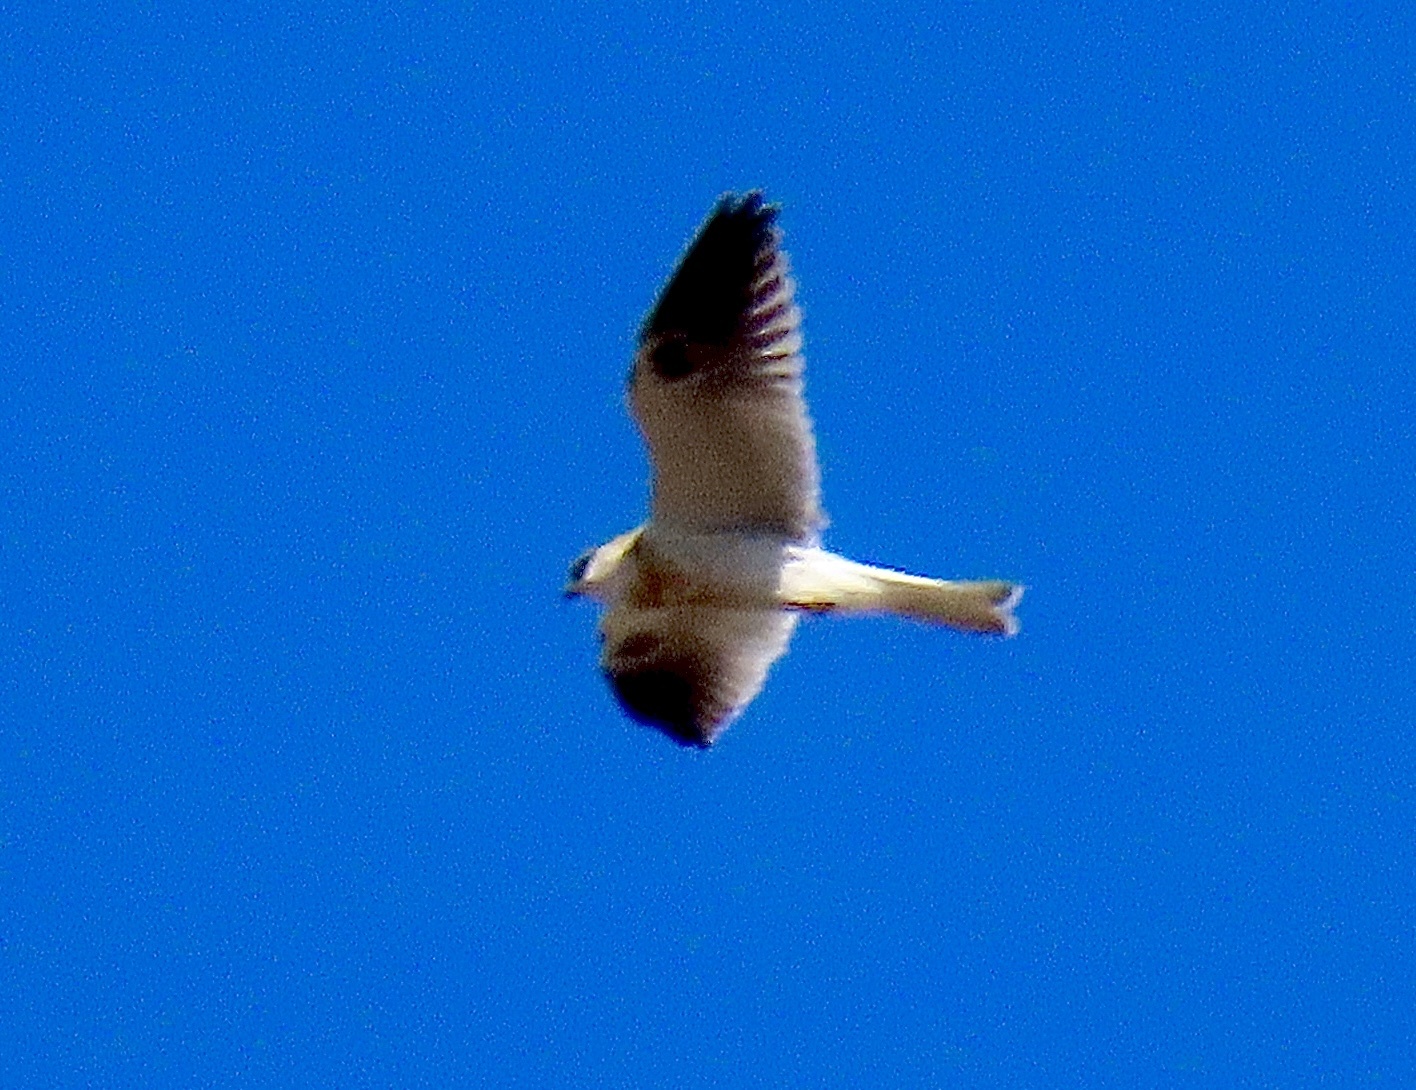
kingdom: Animalia
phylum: Chordata
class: Aves
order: Accipitriformes
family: Accipitridae
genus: Elanus
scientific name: Elanus leucurus
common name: White-tailed kite
